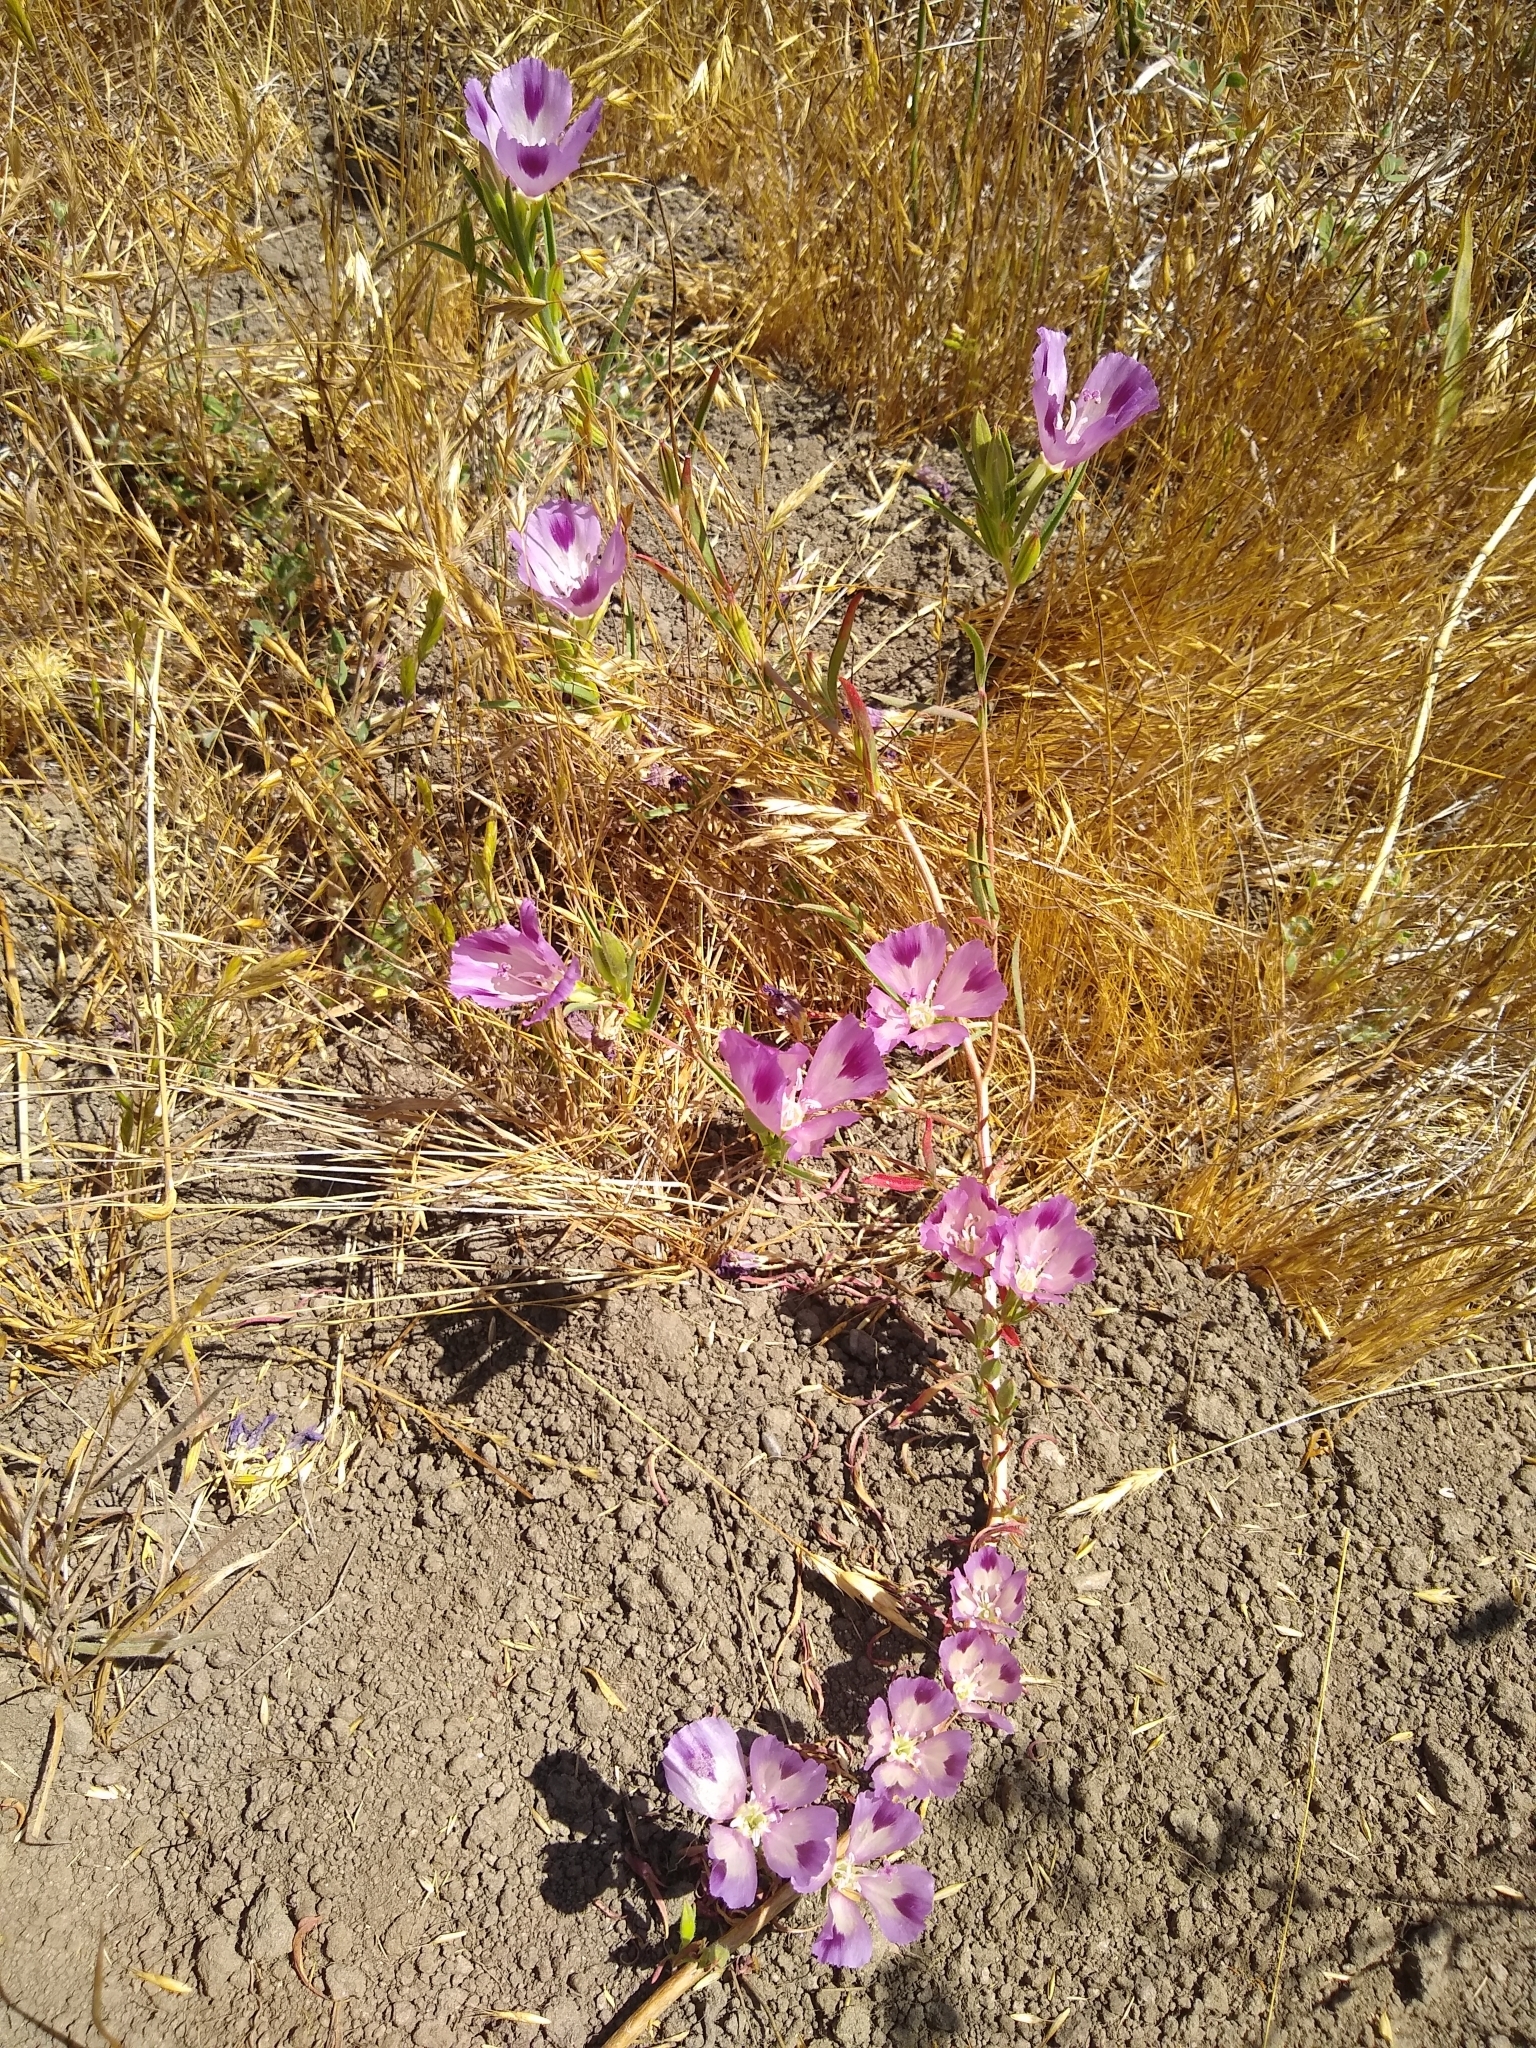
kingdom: Plantae
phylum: Tracheophyta
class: Magnoliopsida
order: Myrtales
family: Onagraceae
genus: Clarkia
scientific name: Clarkia williamsonii
